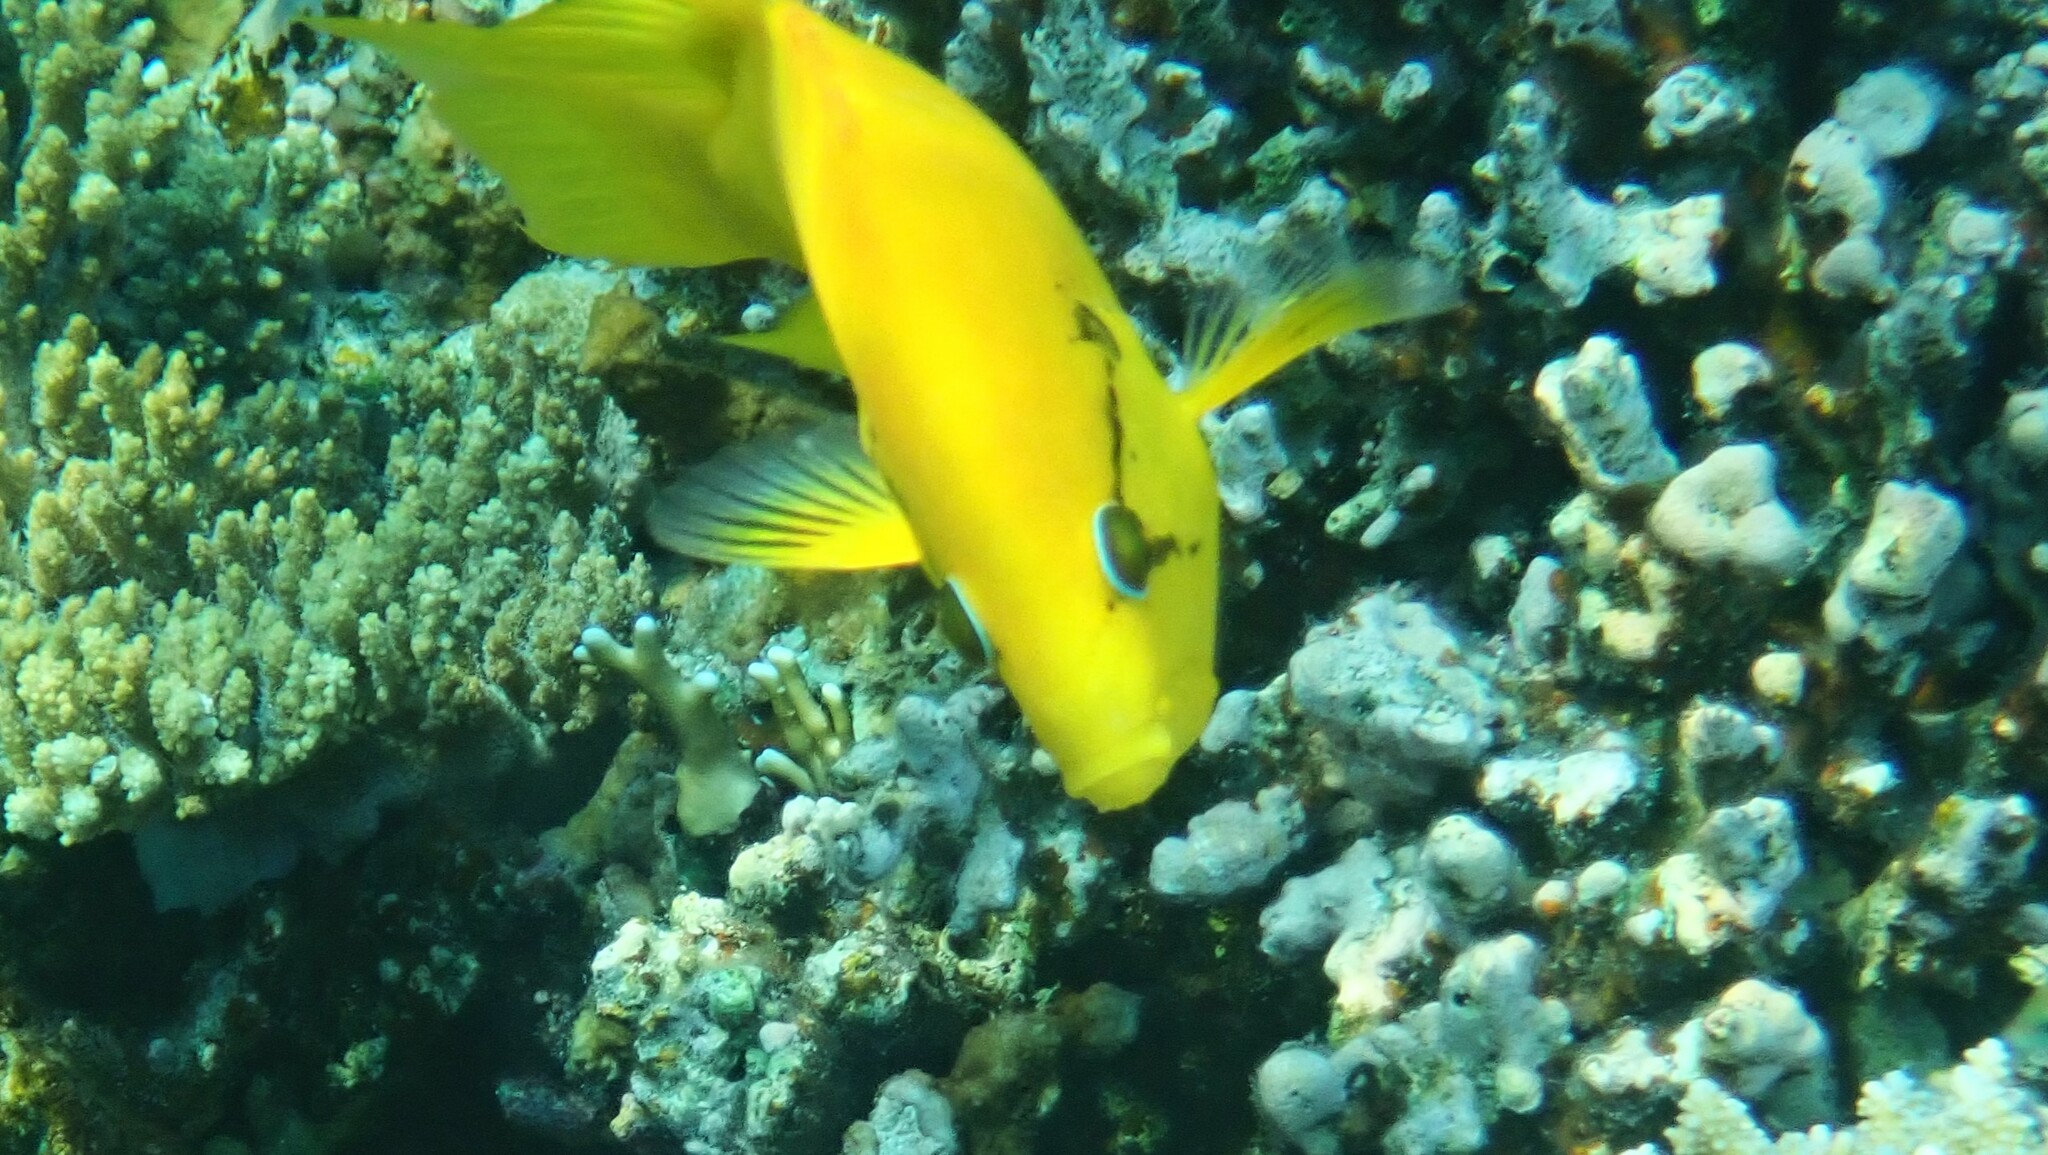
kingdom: Animalia
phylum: Chordata
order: Perciformes
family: Labridae
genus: Epibulus
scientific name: Epibulus insidiator
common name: Slingjaw wrasse
